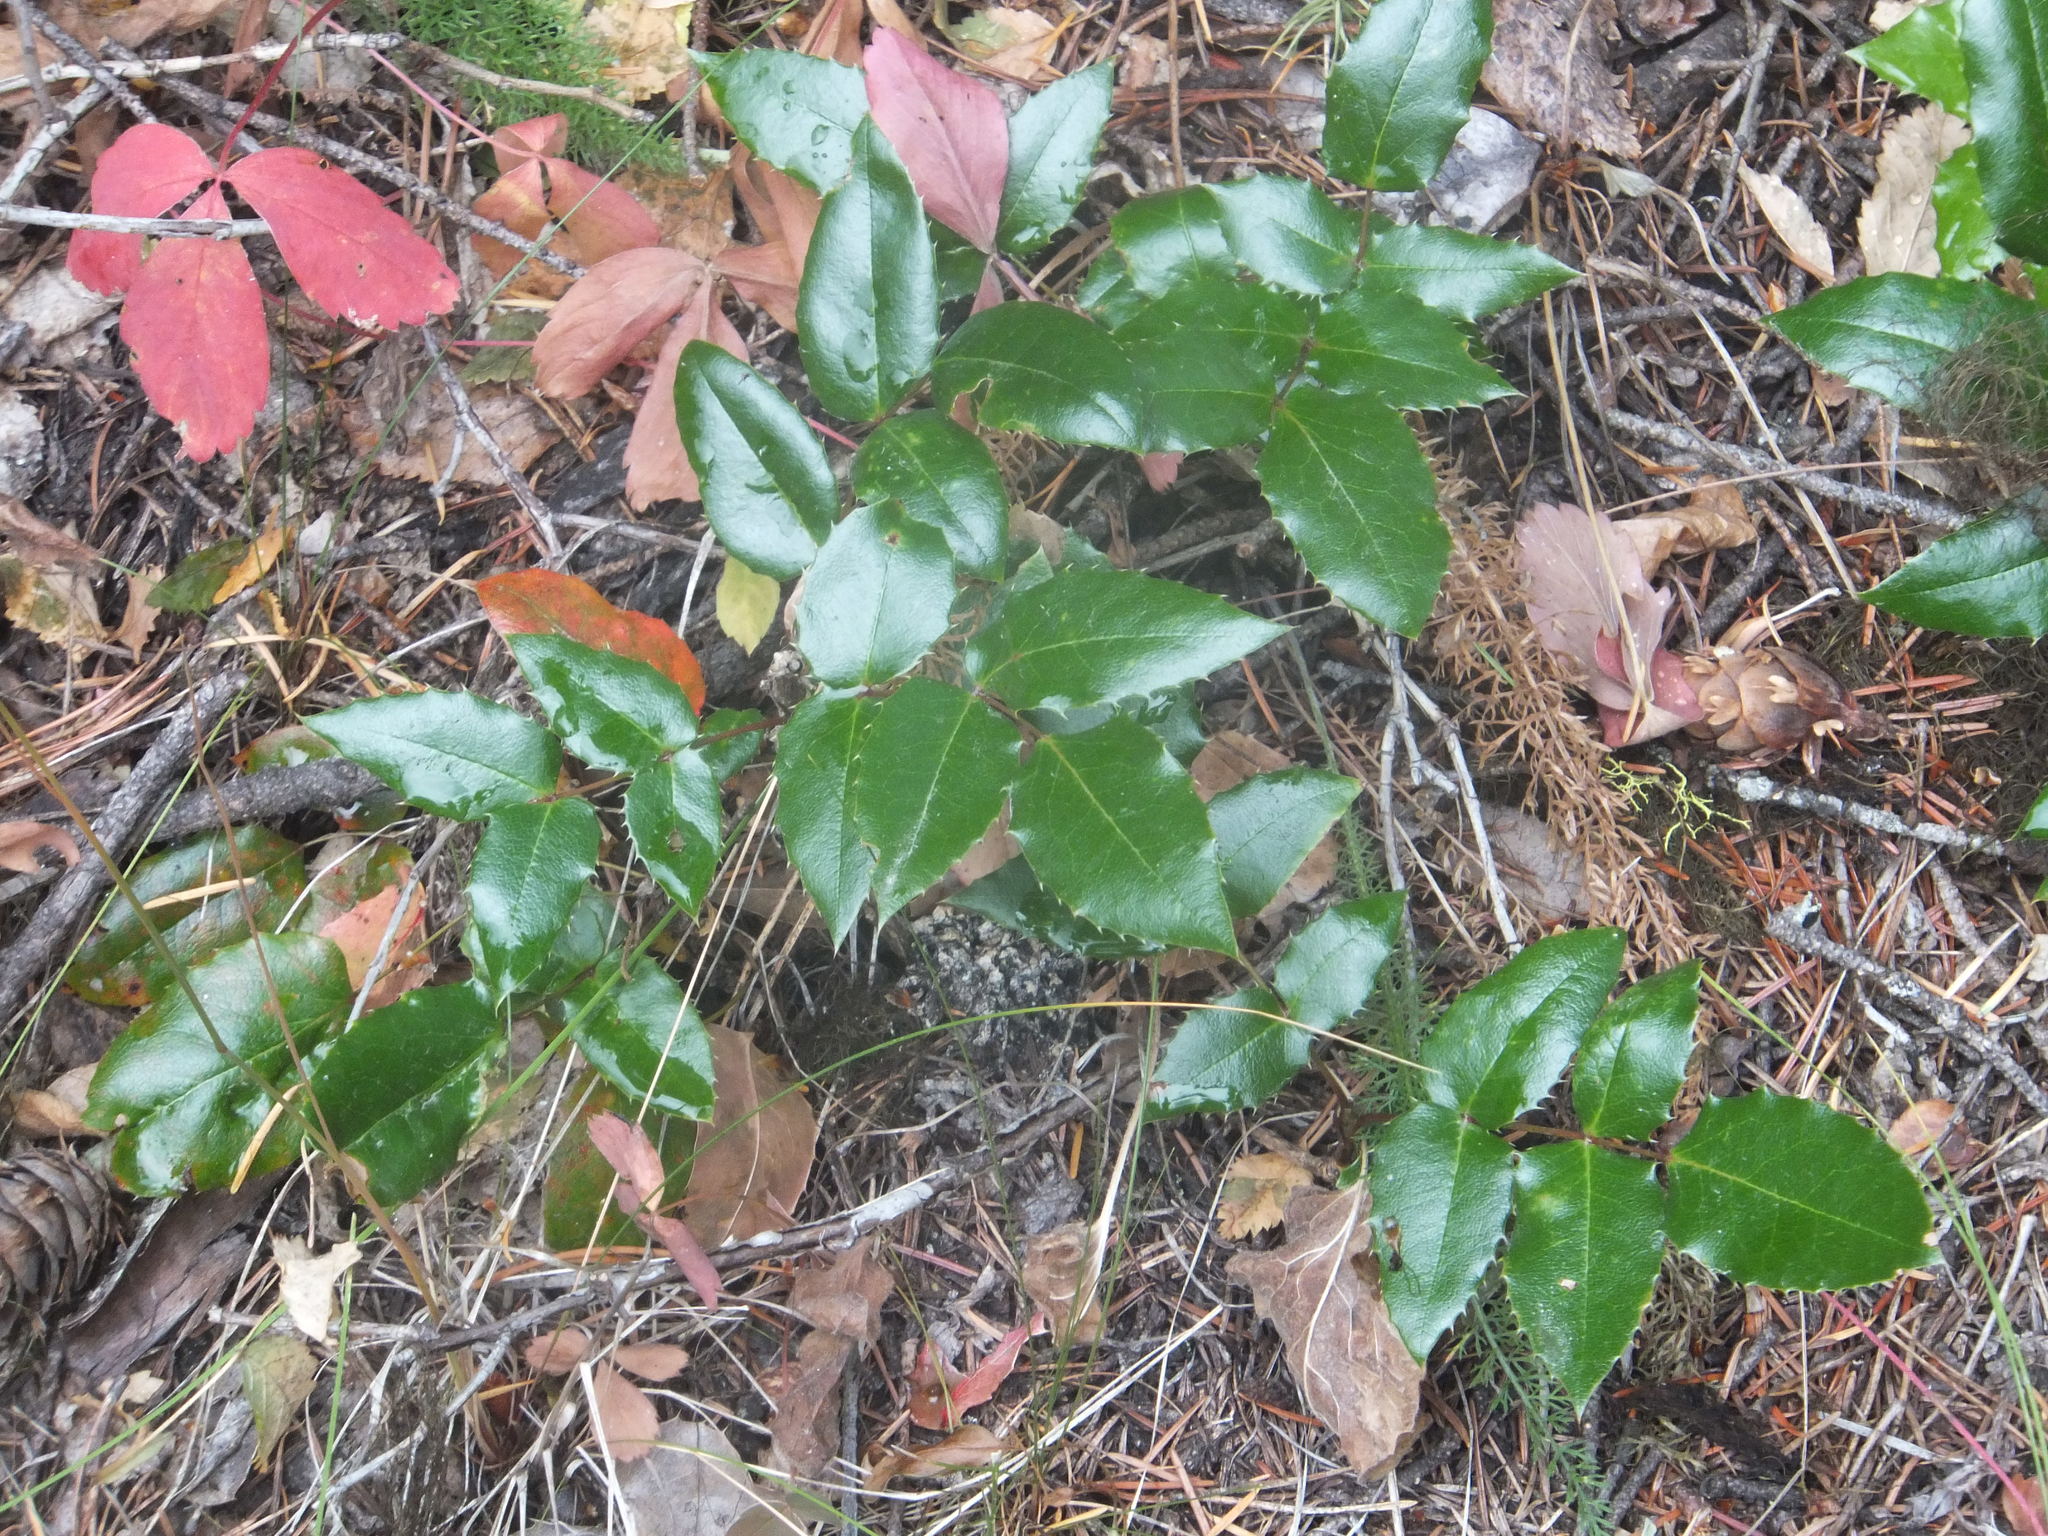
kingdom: Plantae
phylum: Tracheophyta
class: Magnoliopsida
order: Ranunculales
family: Berberidaceae
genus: Mahonia
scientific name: Mahonia aquifolium
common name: Oregon-grape
